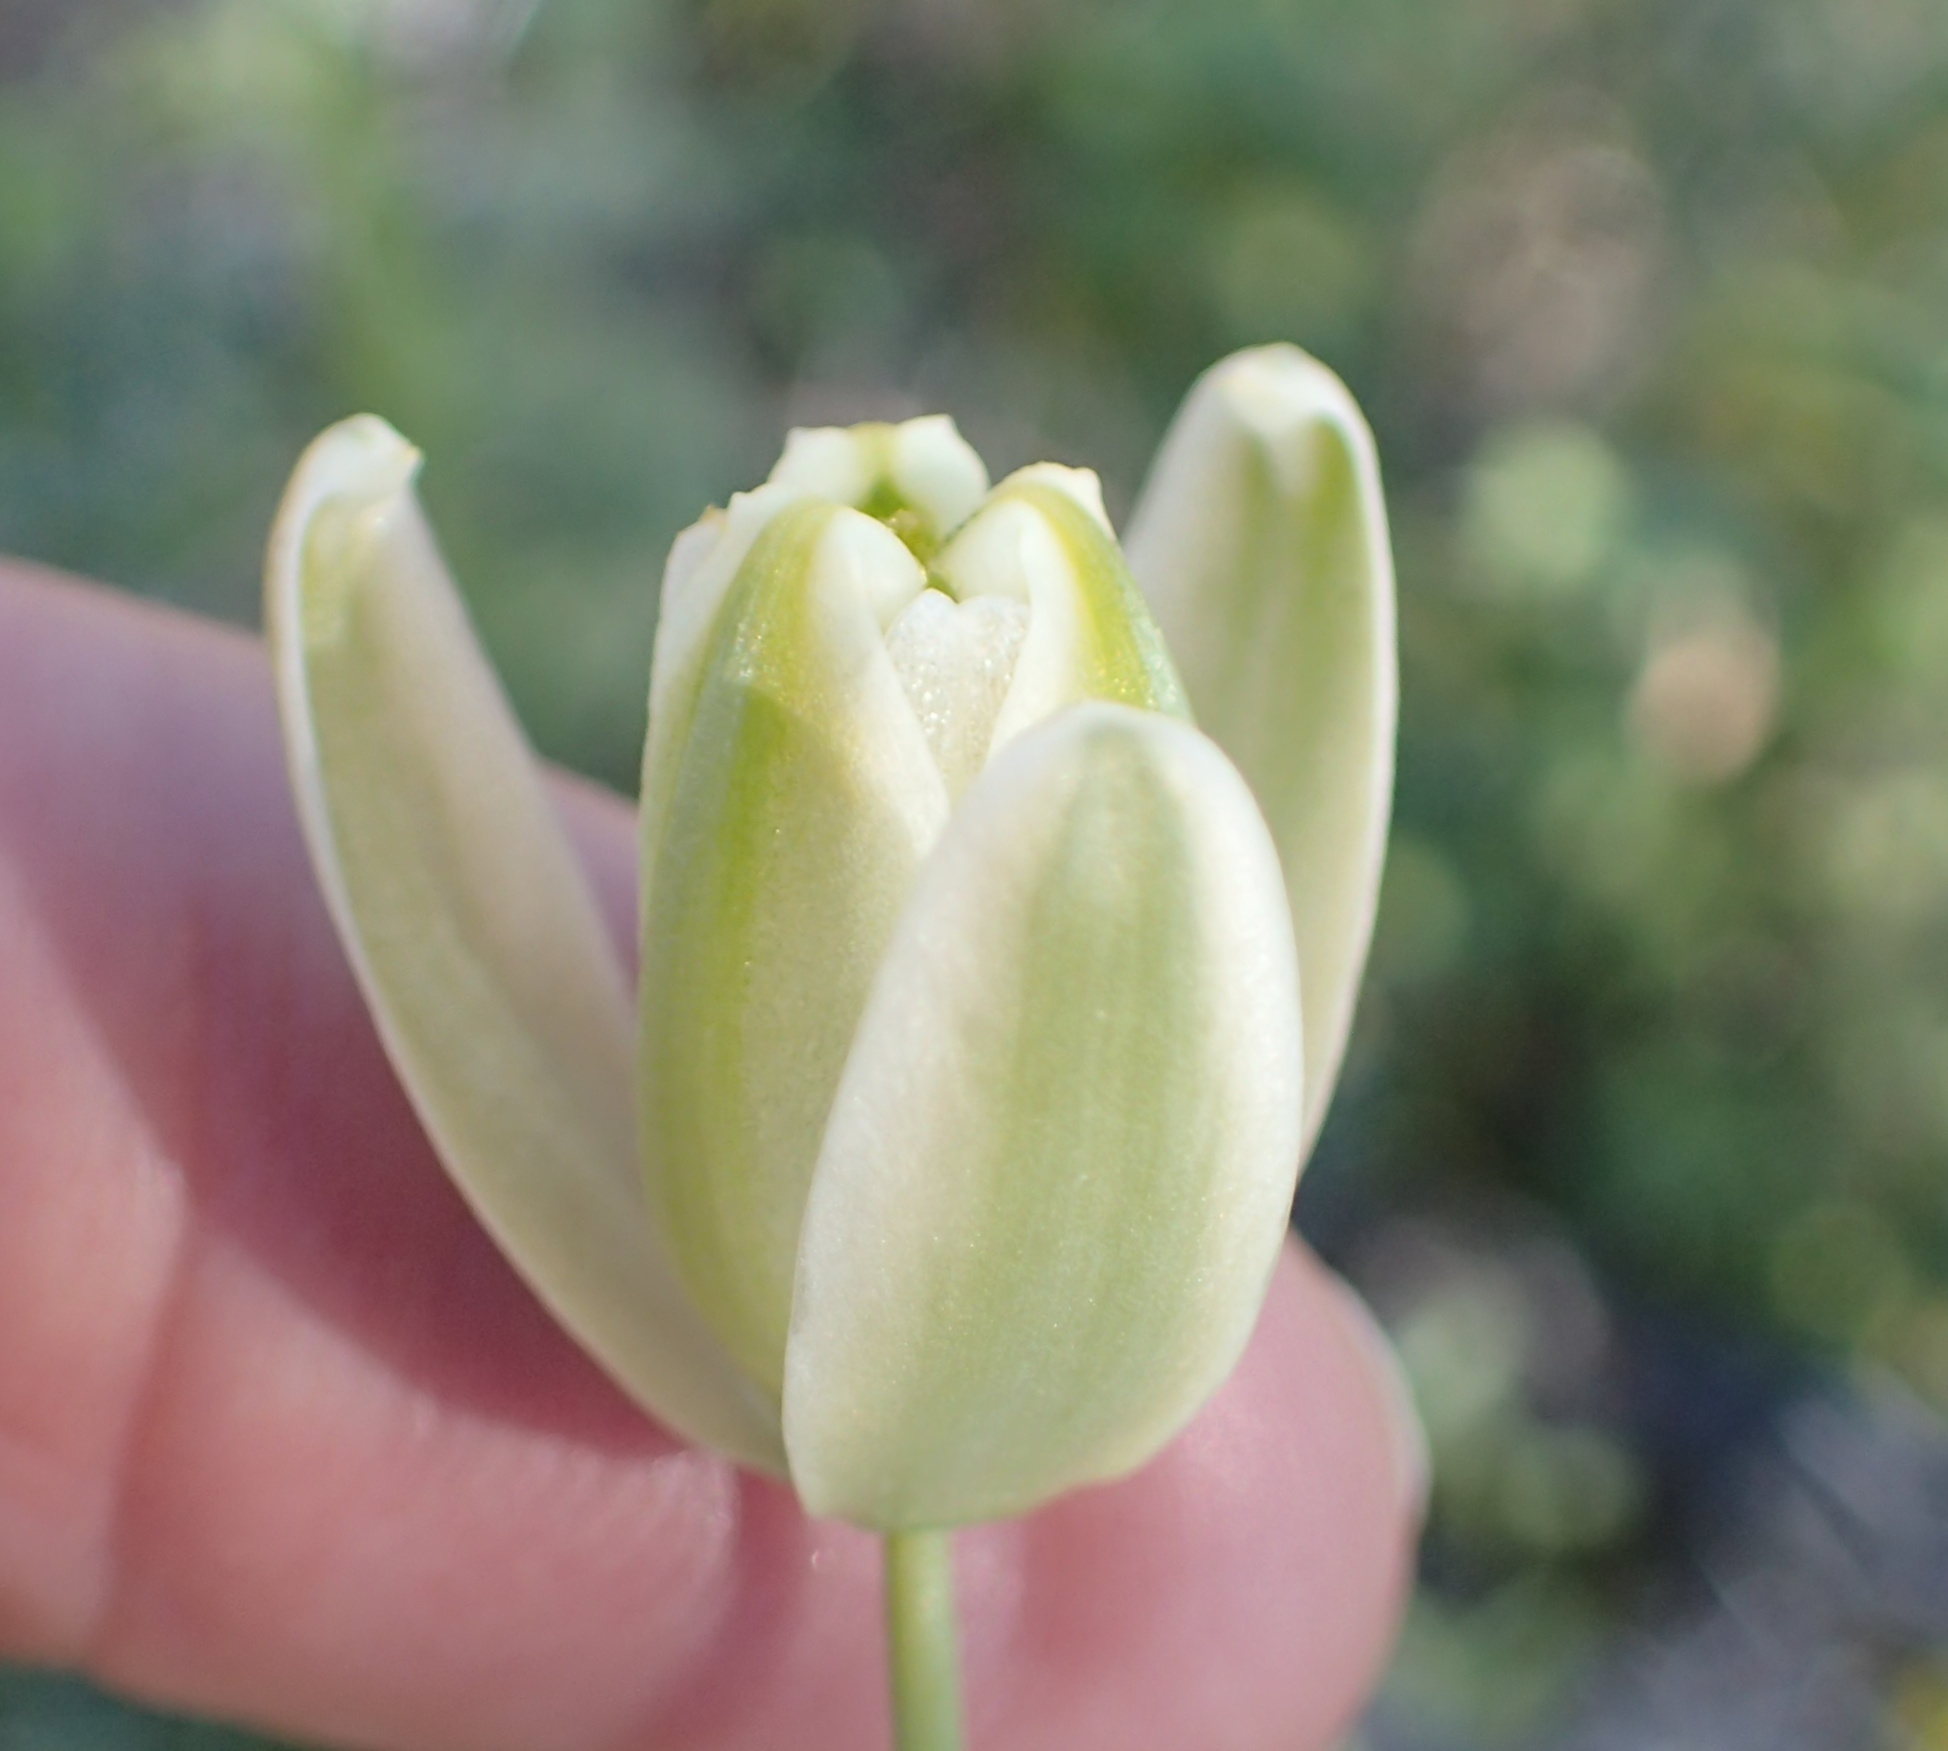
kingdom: Plantae
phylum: Tracheophyta
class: Liliopsida
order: Asparagales
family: Asparagaceae
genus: Albuca
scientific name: Albuca canadensis
